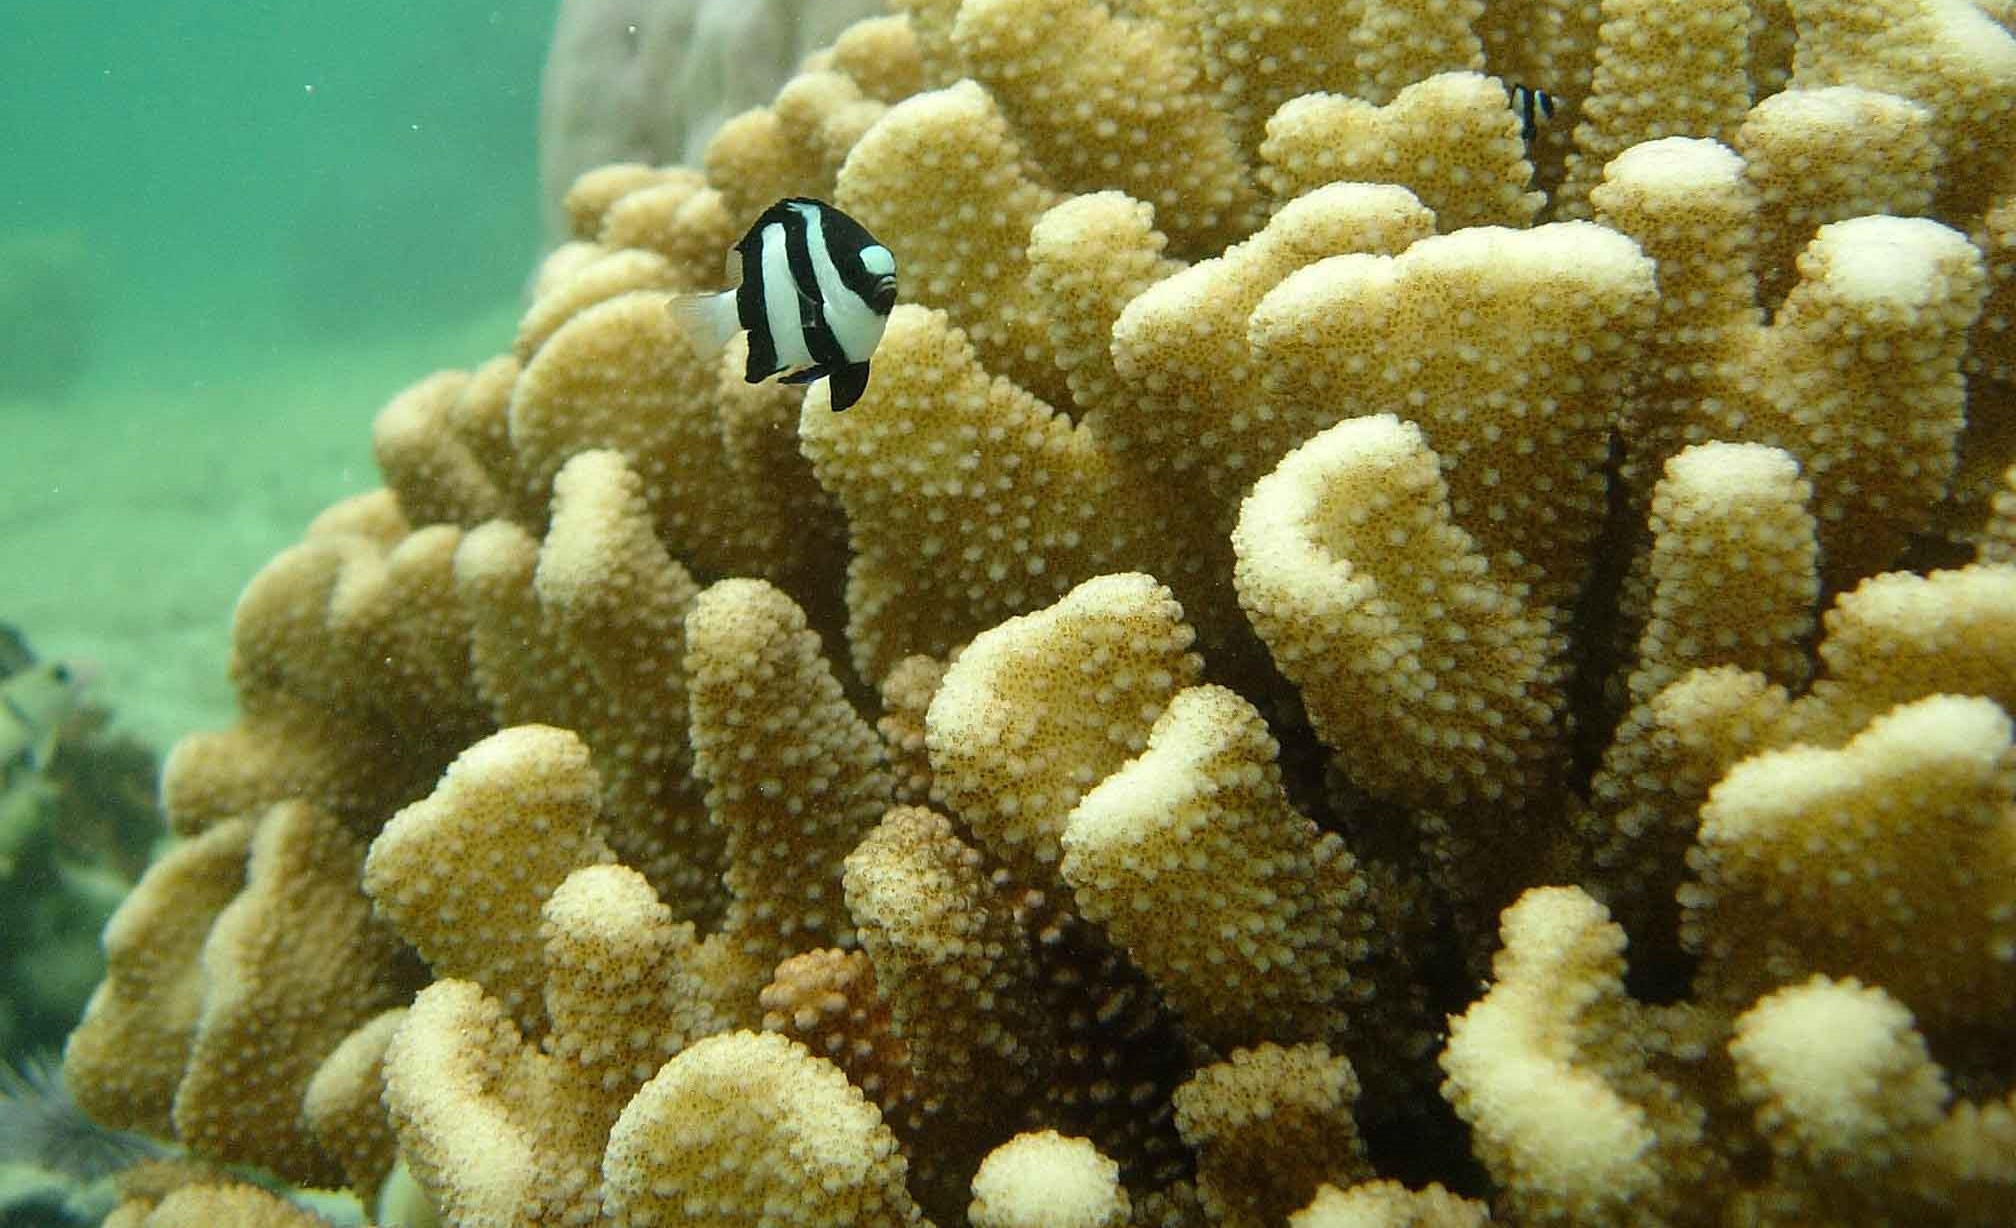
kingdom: Animalia
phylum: Chordata
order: Perciformes
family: Pomacentridae
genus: Dascyllus
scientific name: Dascyllus aruanus
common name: Humbug dascyllus
